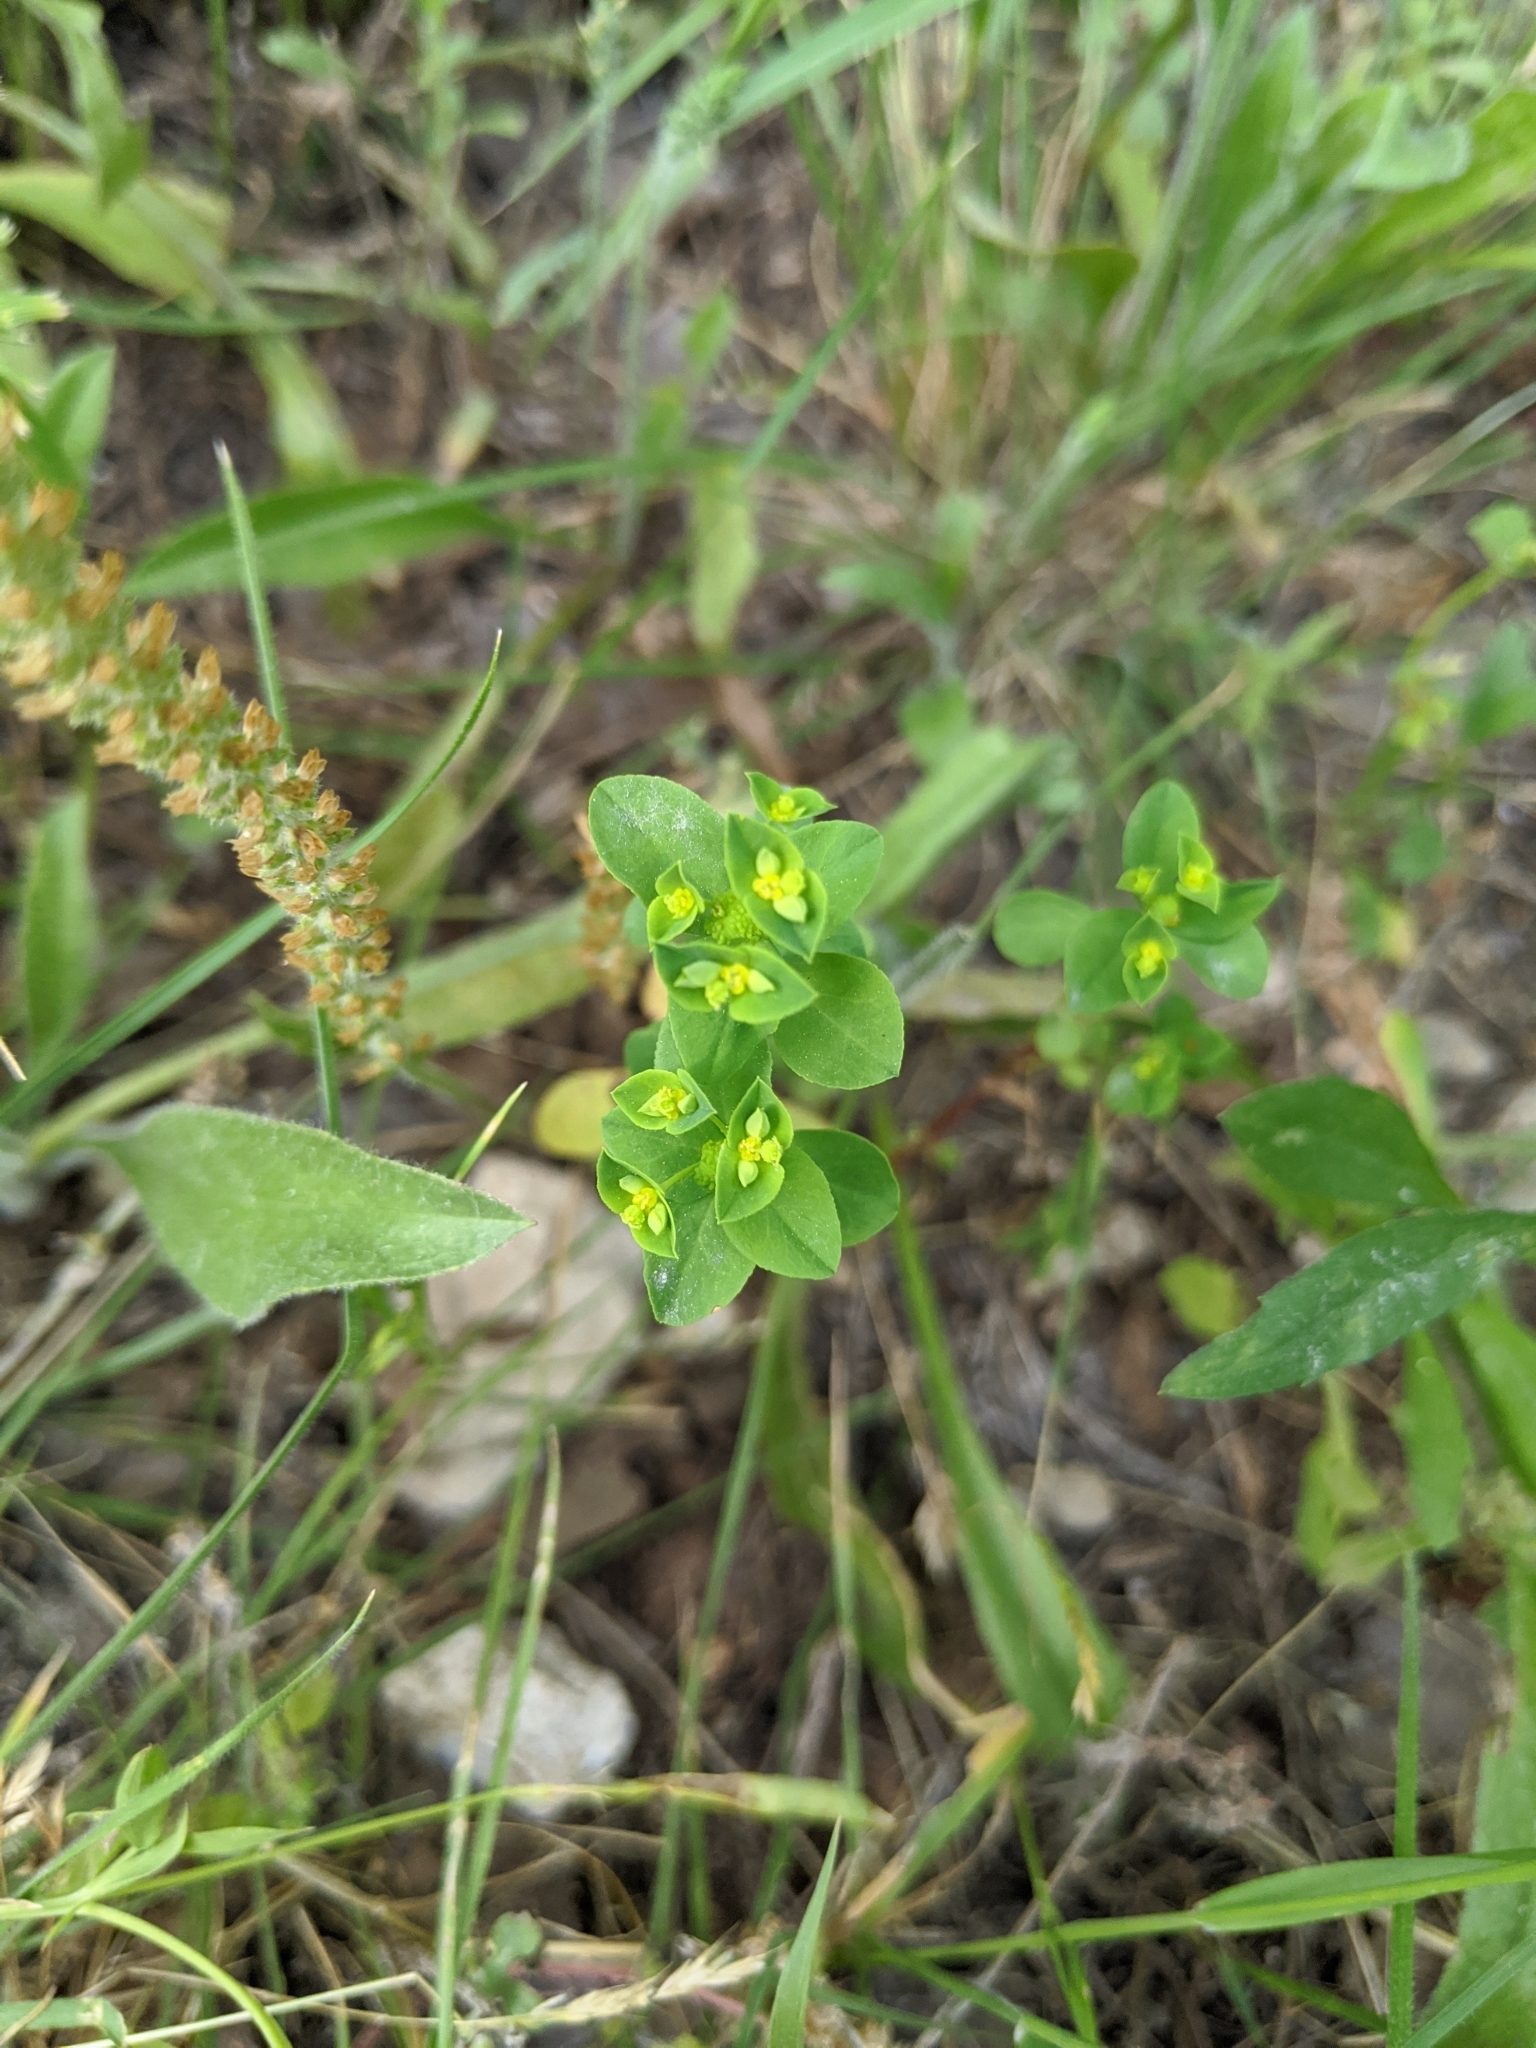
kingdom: Plantae
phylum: Tracheophyta
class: Magnoliopsida
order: Malpighiales
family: Euphorbiaceae
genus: Euphorbia
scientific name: Euphorbia spathulata
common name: Blunt spurge
